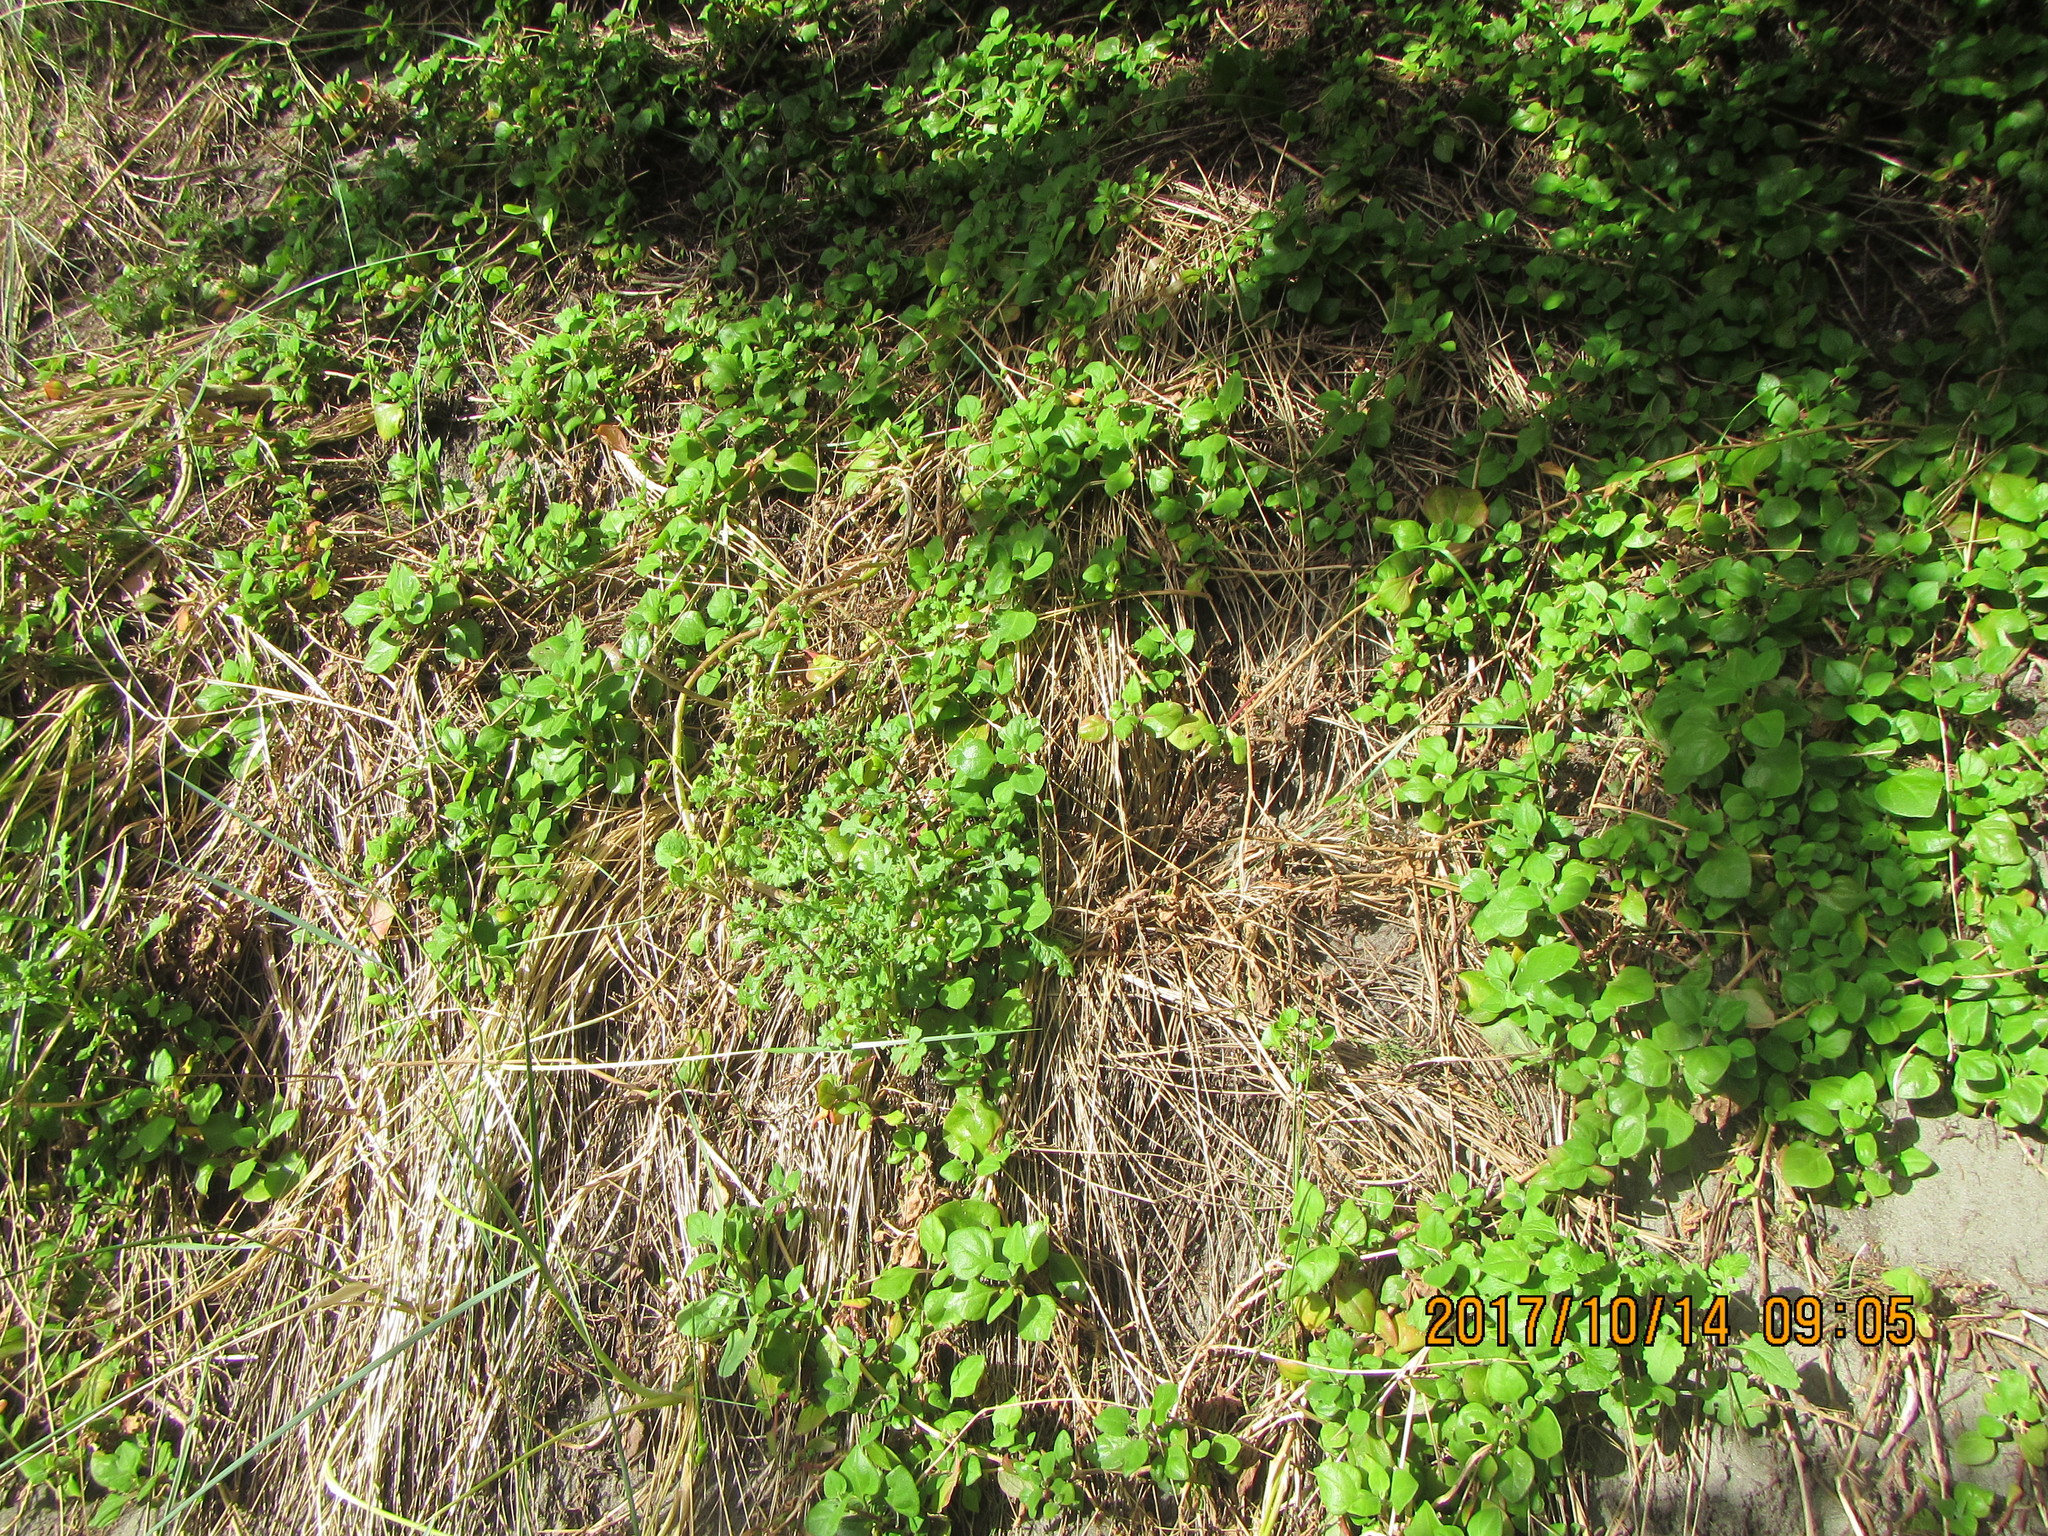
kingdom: Plantae
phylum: Tracheophyta
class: Magnoliopsida
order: Caryophyllales
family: Aizoaceae
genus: Tetragonia
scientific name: Tetragonia implexicoma
